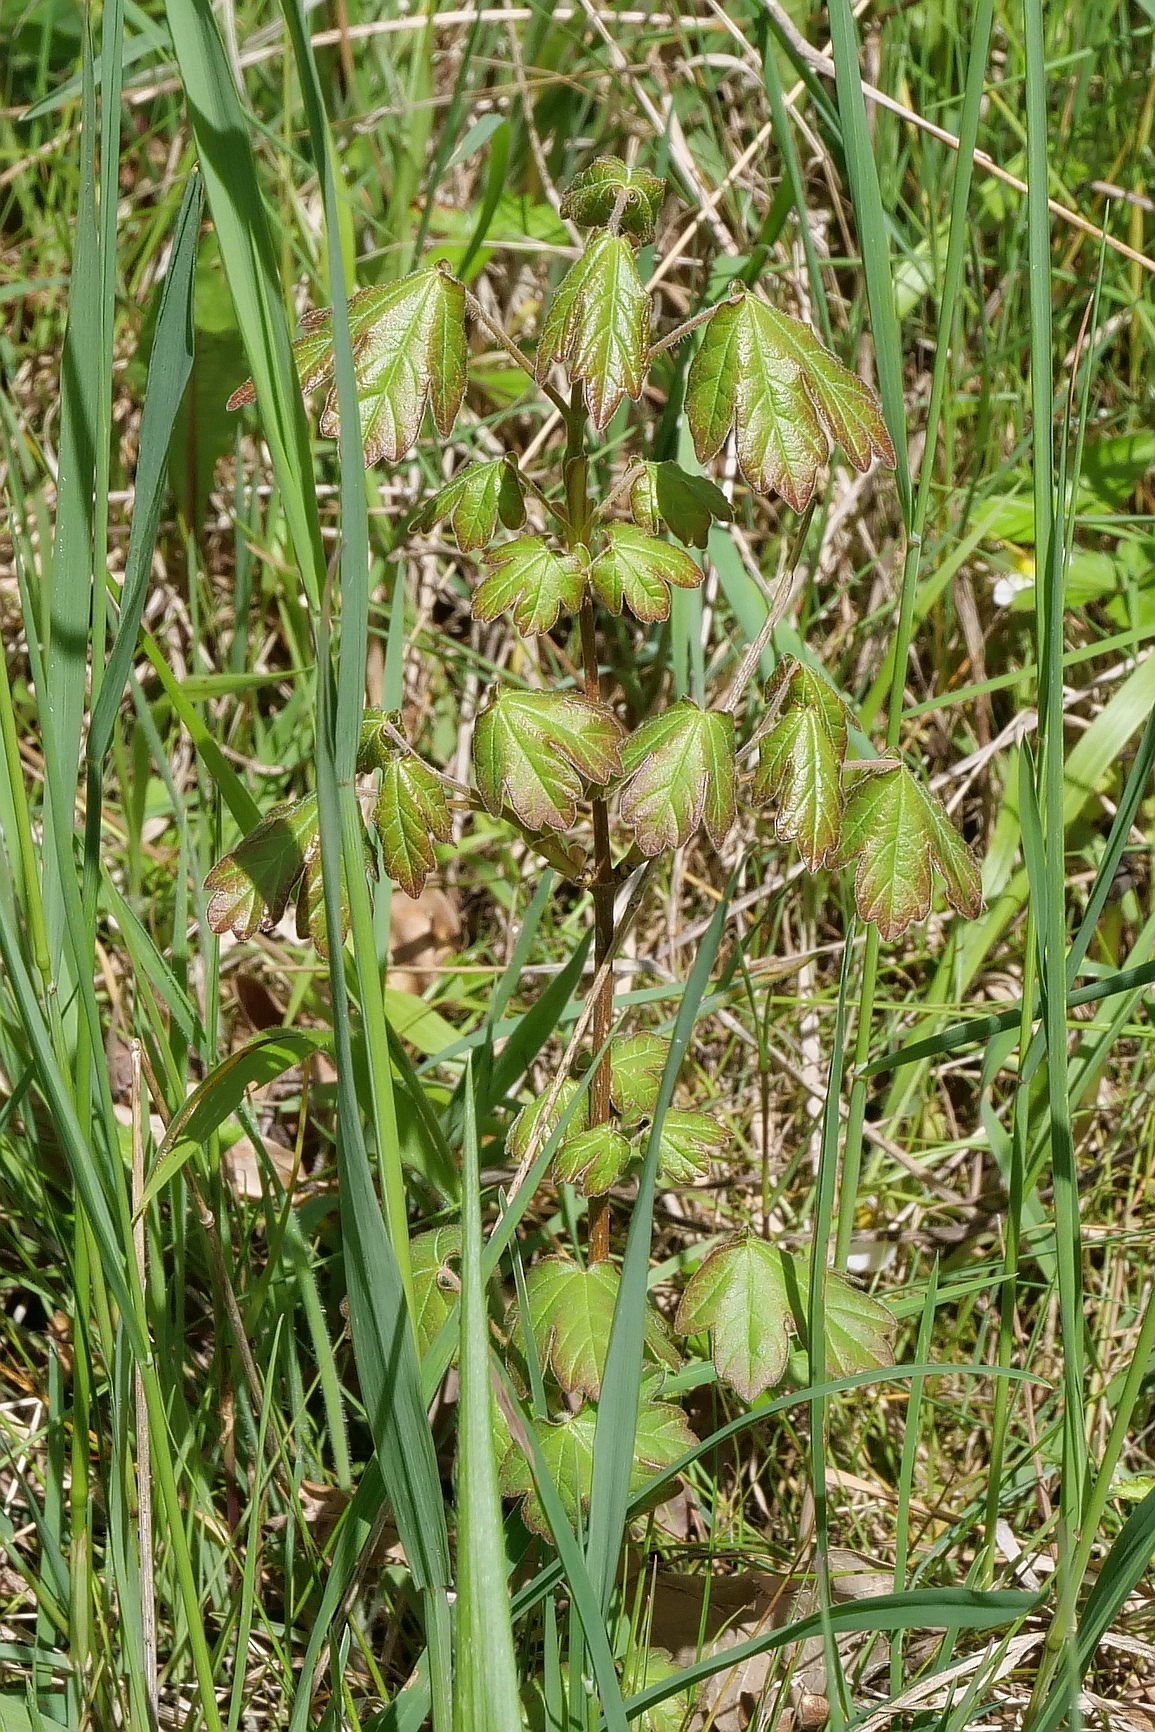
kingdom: Plantae
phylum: Tracheophyta
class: Magnoliopsida
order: Sapindales
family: Sapindaceae
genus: Acer
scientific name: Acer campestre
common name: Field maple
